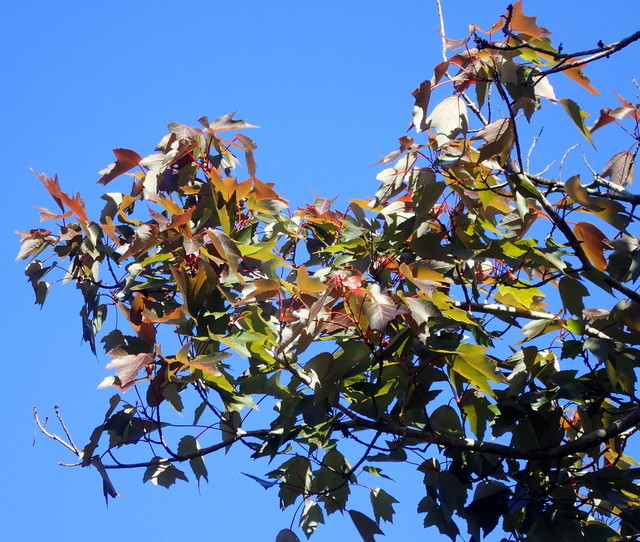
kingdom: Plantae
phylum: Tracheophyta
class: Magnoliopsida
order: Sapindales
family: Sapindaceae
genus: Acer
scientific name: Acer rubrum
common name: Red maple
